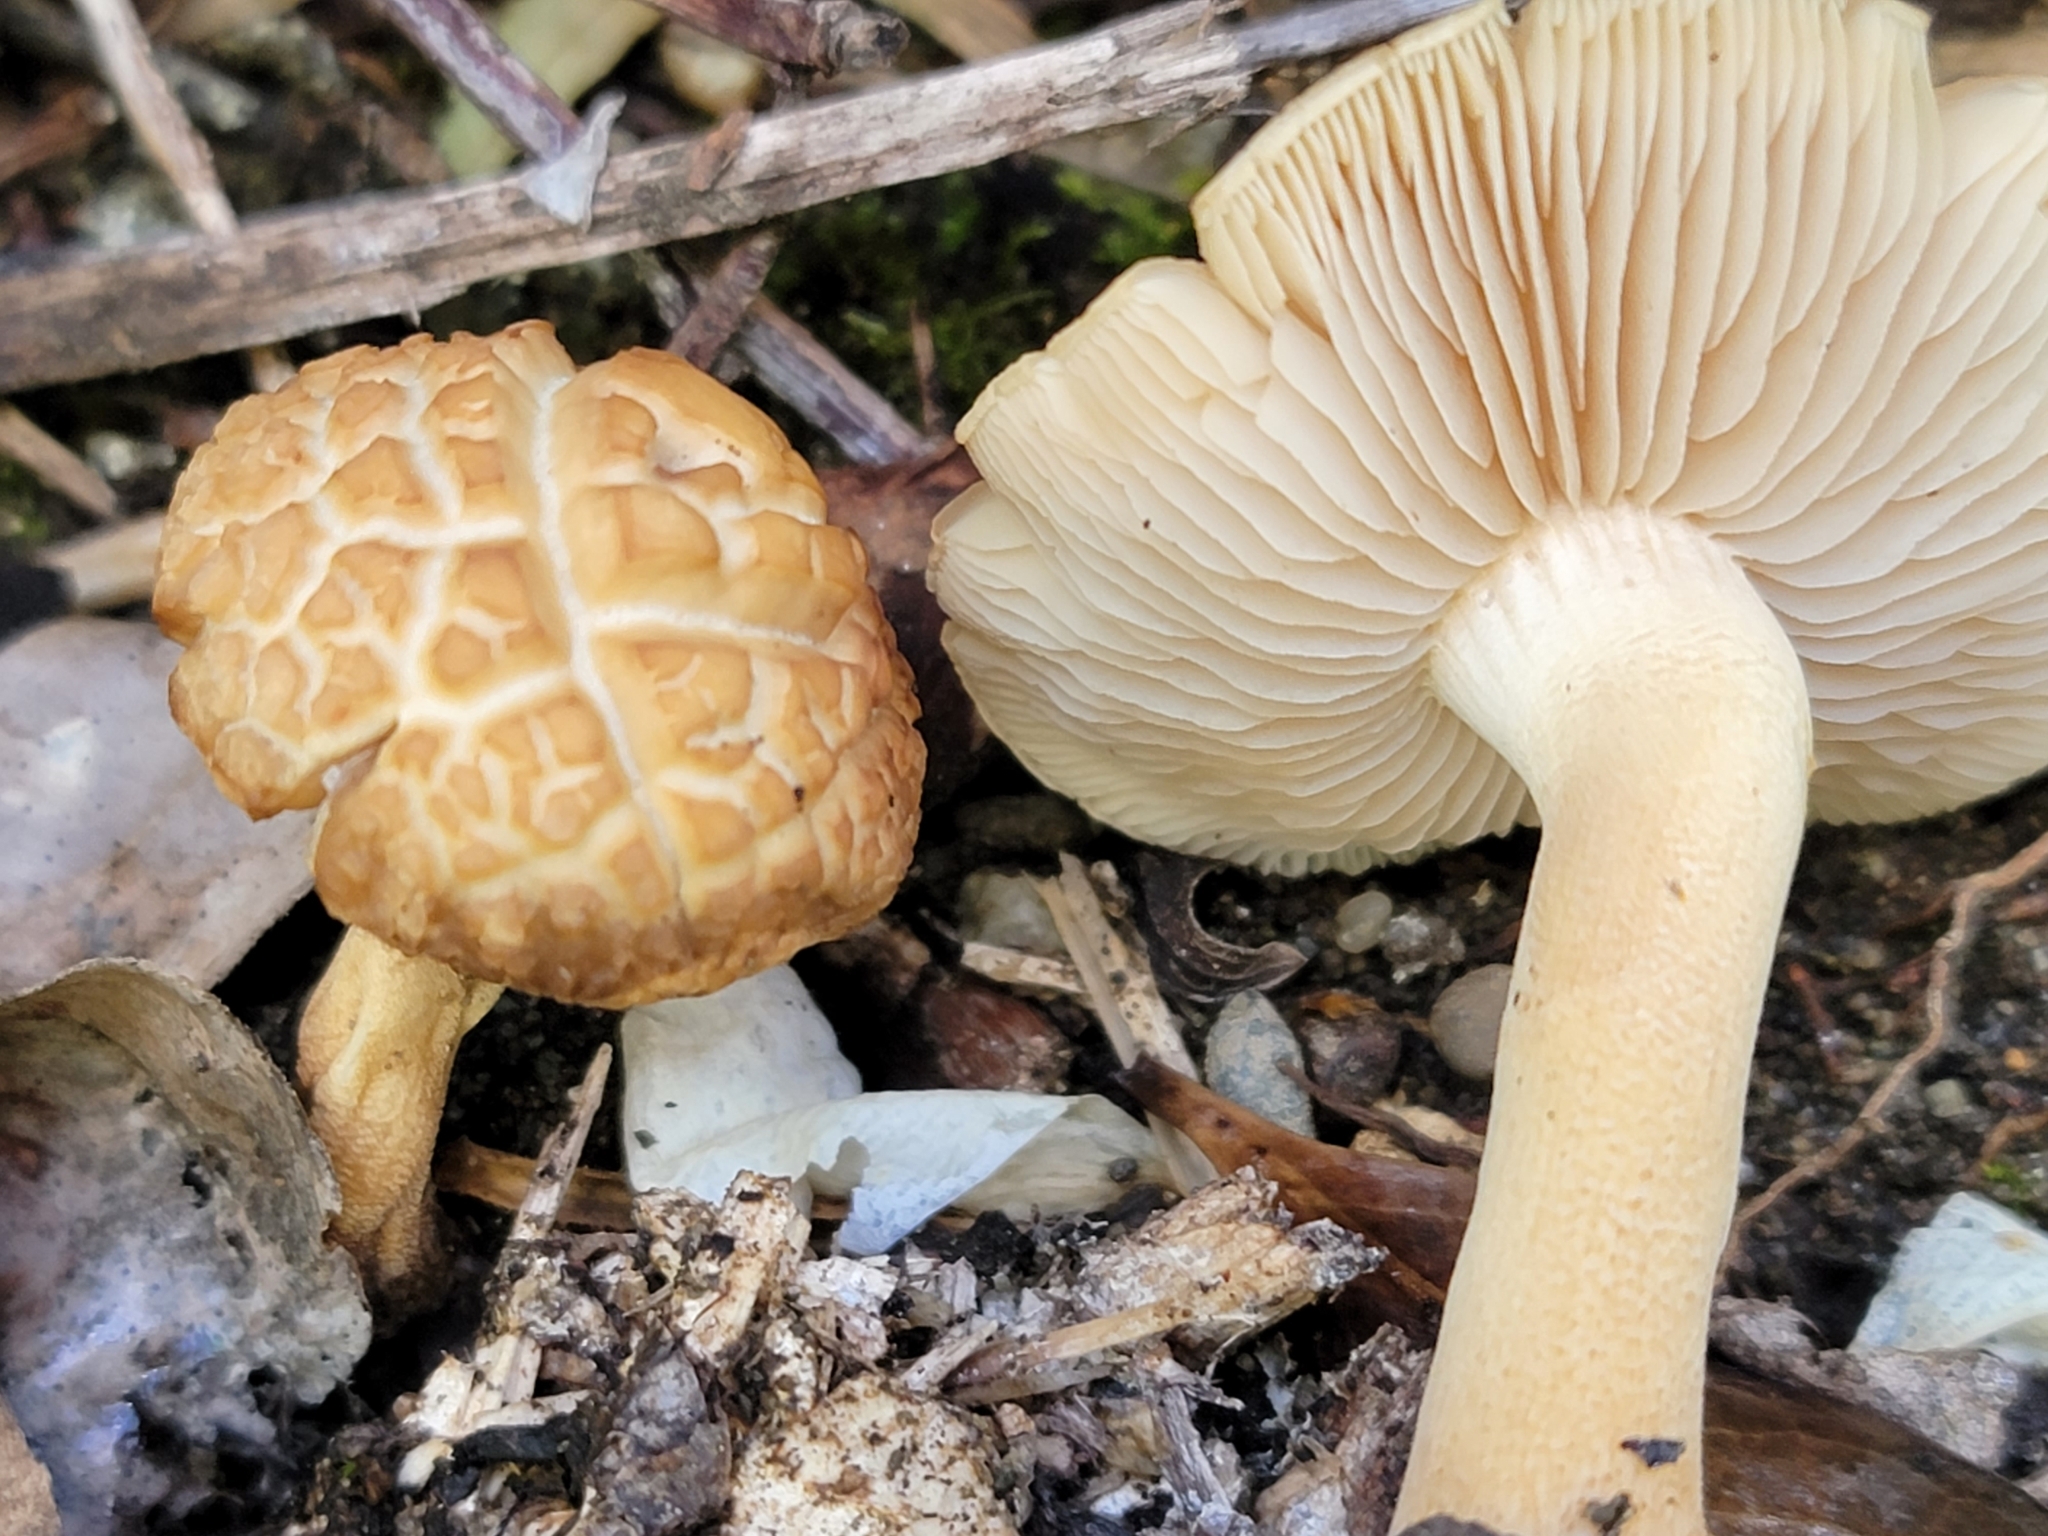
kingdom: Fungi
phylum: Basidiomycota
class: Agaricomycetes
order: Agaricales
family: Strophariaceae
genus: Agrocybe
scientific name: Agrocybe putaminum
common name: Mulch fieldcap
